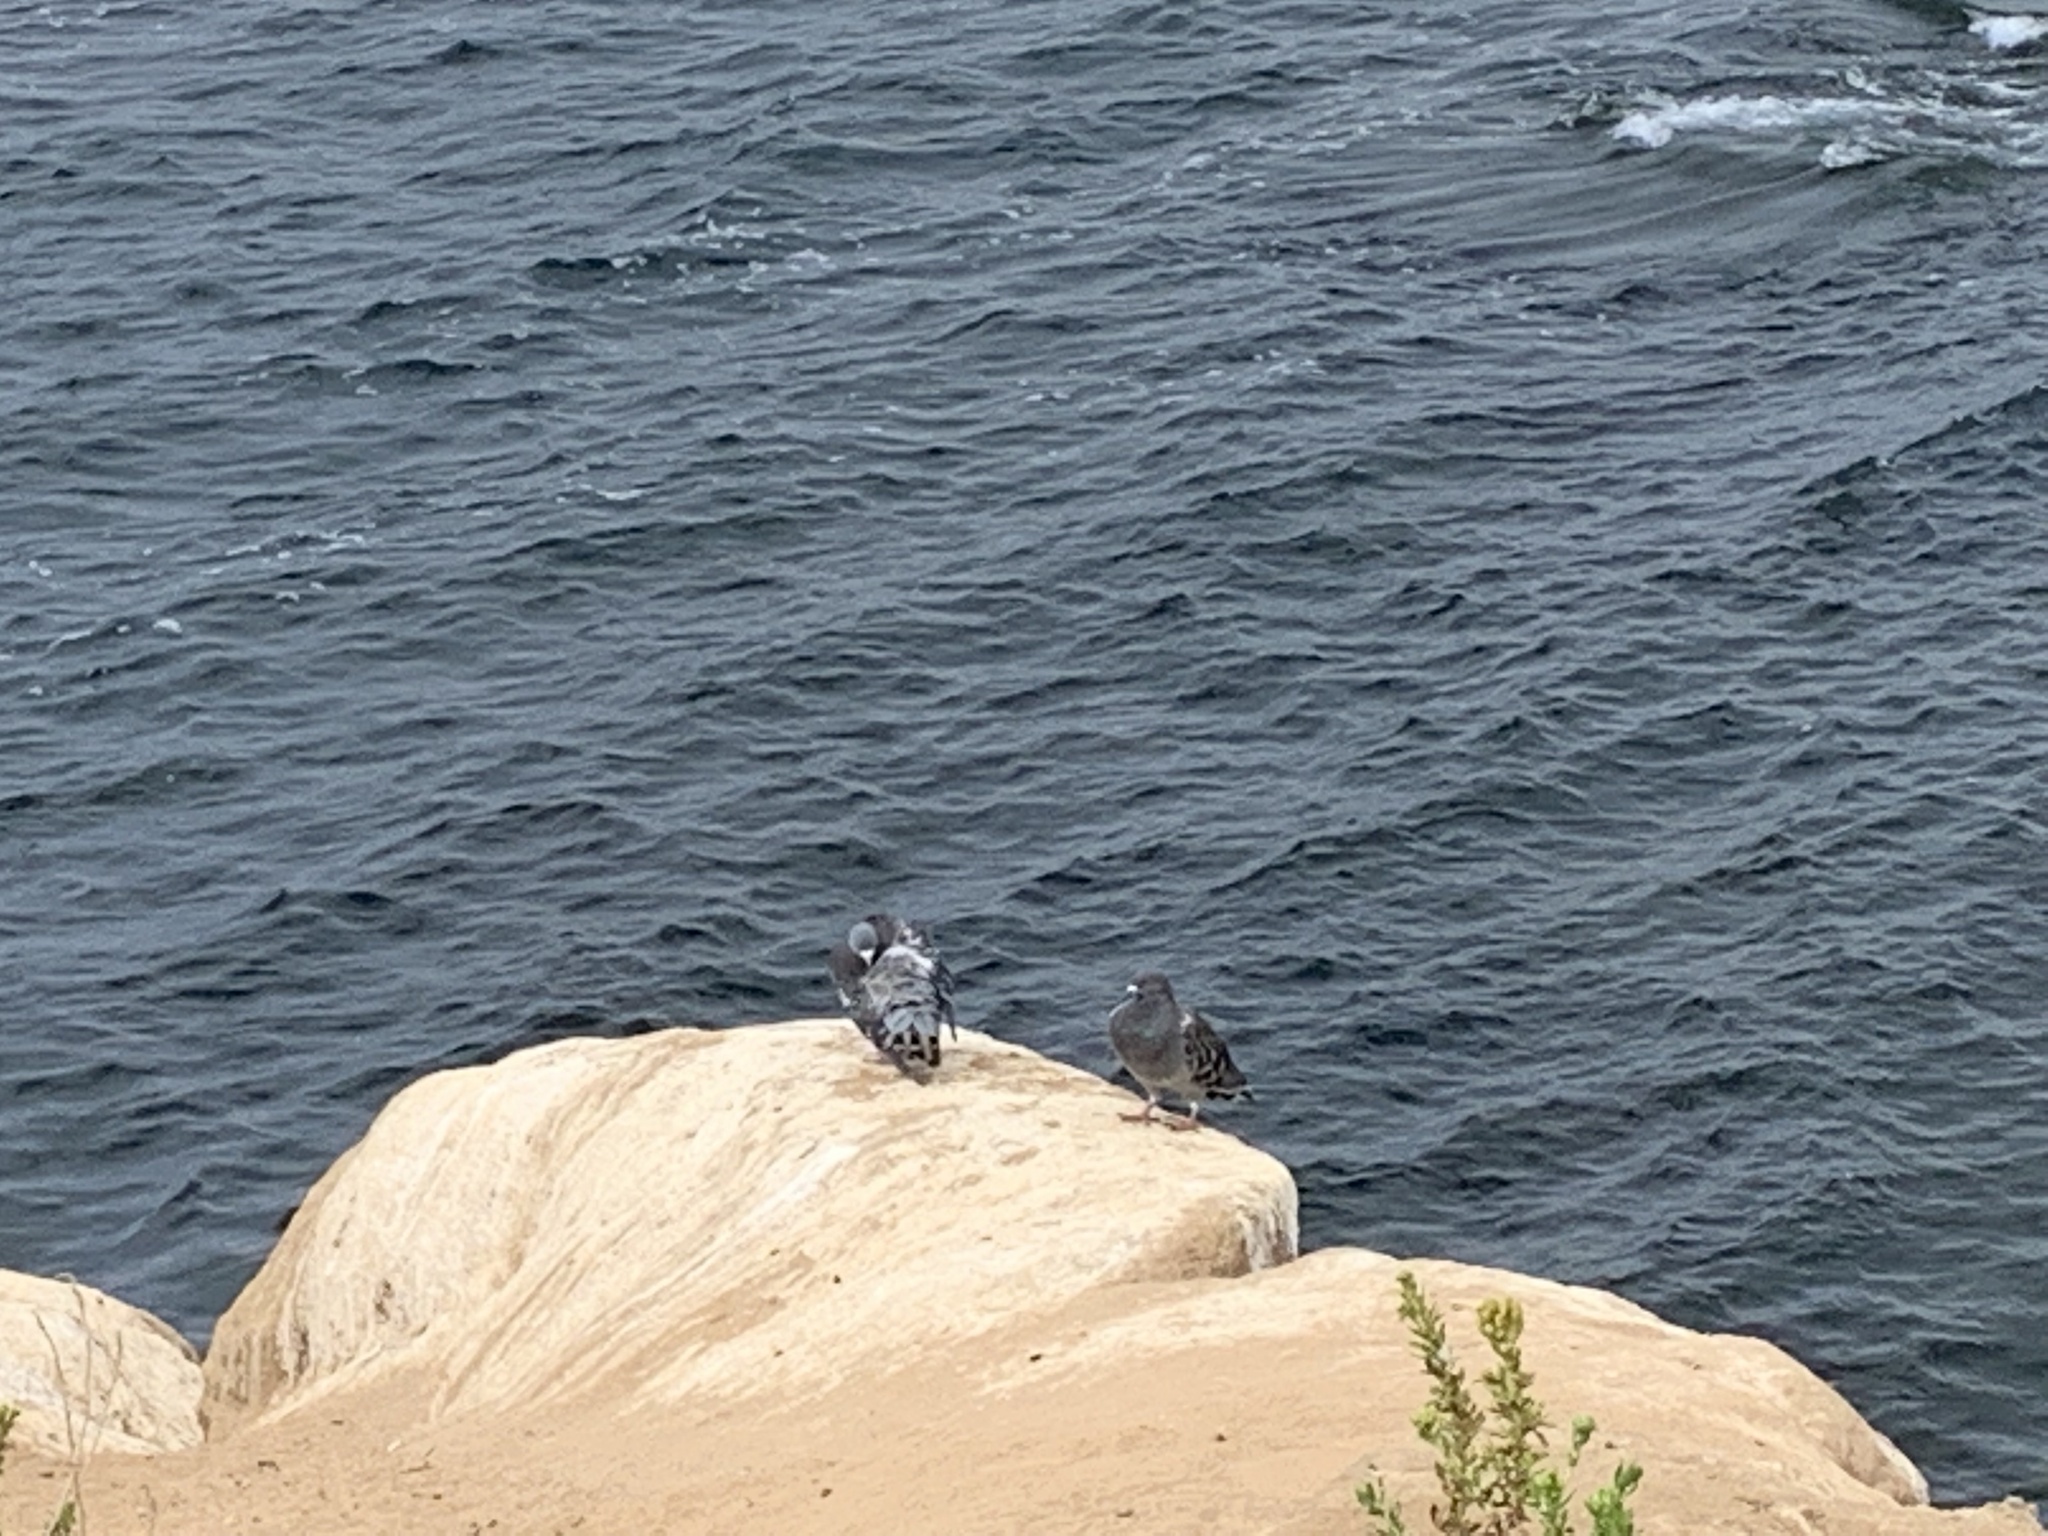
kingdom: Animalia
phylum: Chordata
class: Aves
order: Columbiformes
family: Columbidae
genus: Columba
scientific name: Columba livia
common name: Rock pigeon
